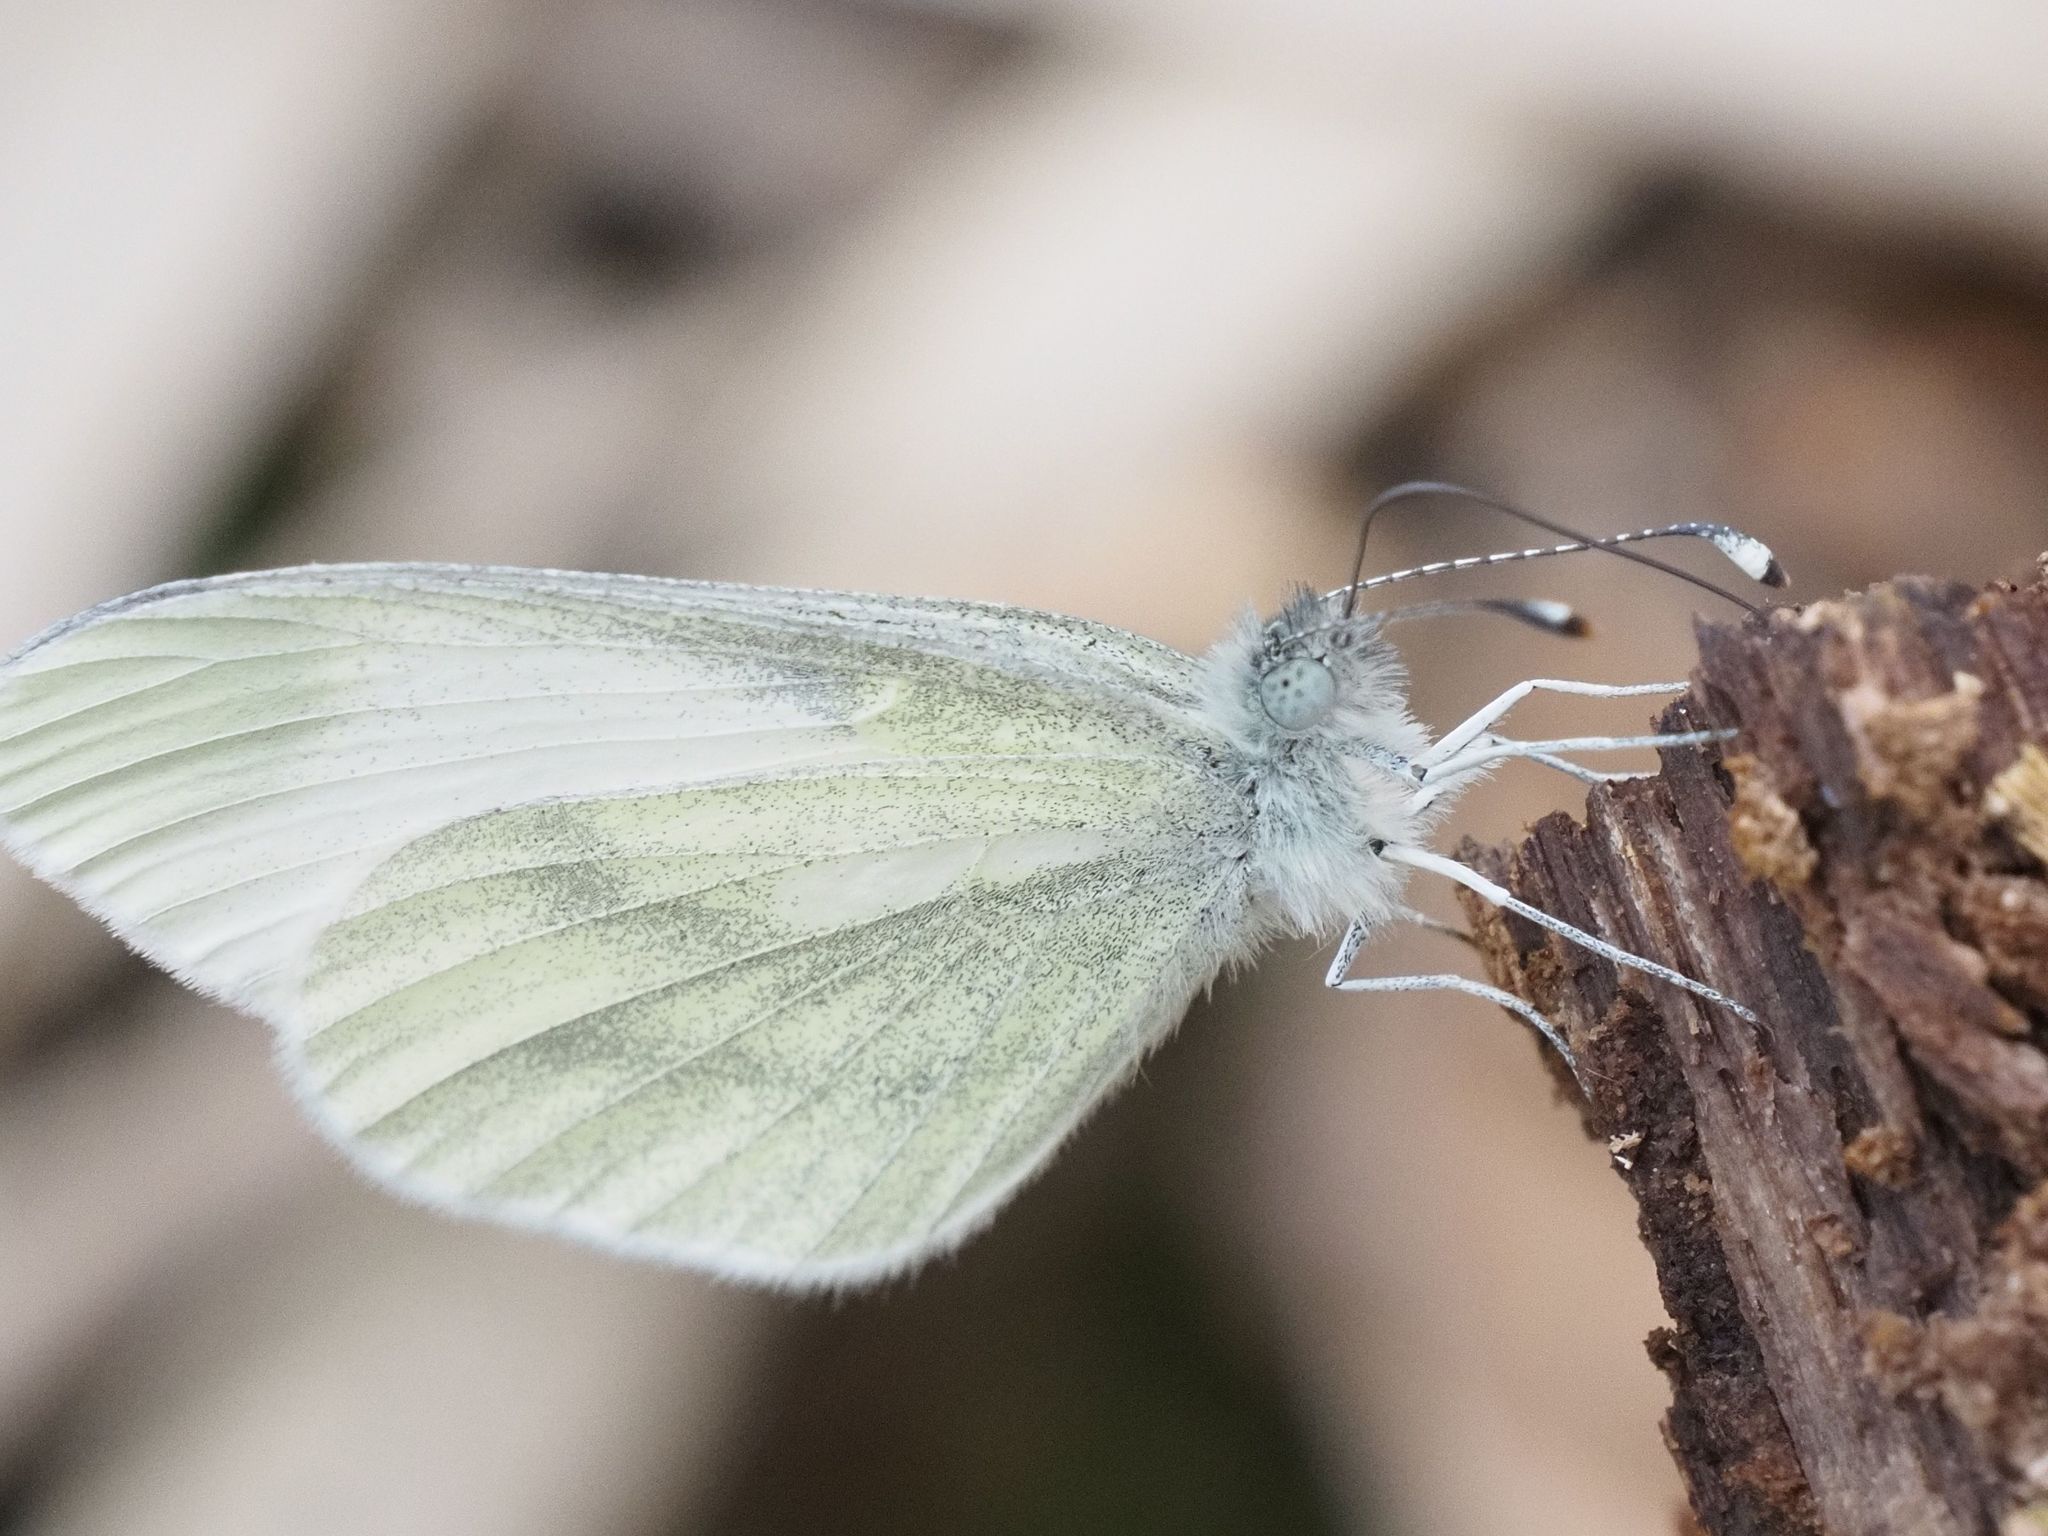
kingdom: Animalia
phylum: Arthropoda
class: Insecta
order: Lepidoptera
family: Pieridae
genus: Leptidea
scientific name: Leptidea
